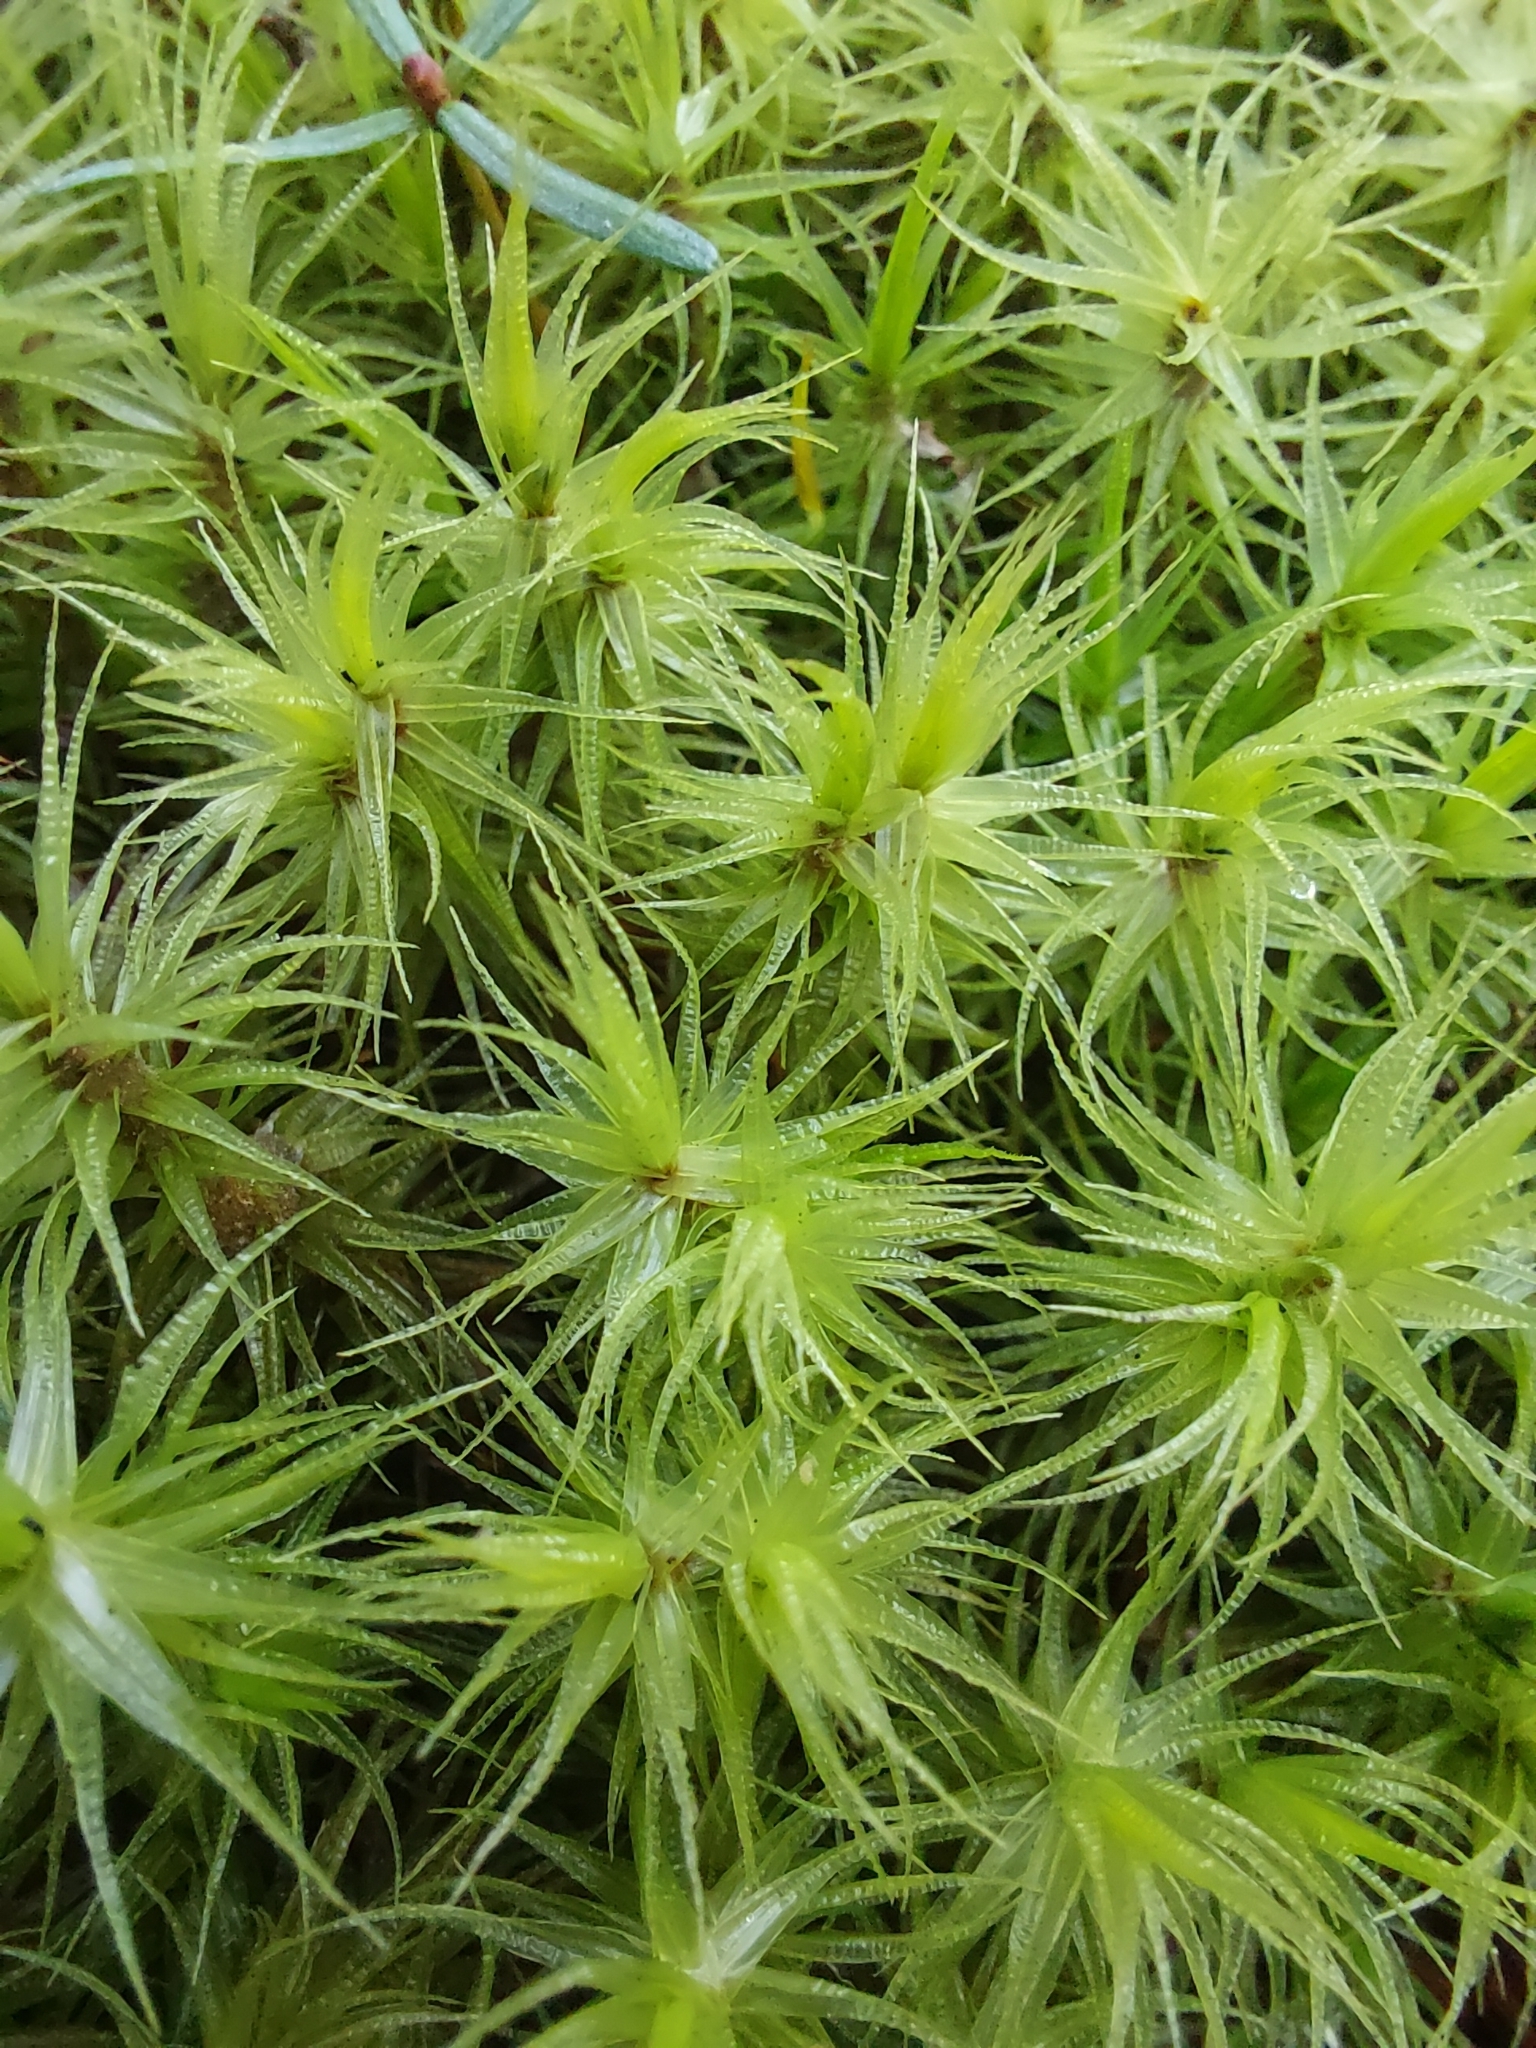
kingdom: Plantae
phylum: Bryophyta
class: Bryopsida
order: Dicranales
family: Dicranaceae
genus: Dicranum
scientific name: Dicranum polysetum
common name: Rugose fork-moss
